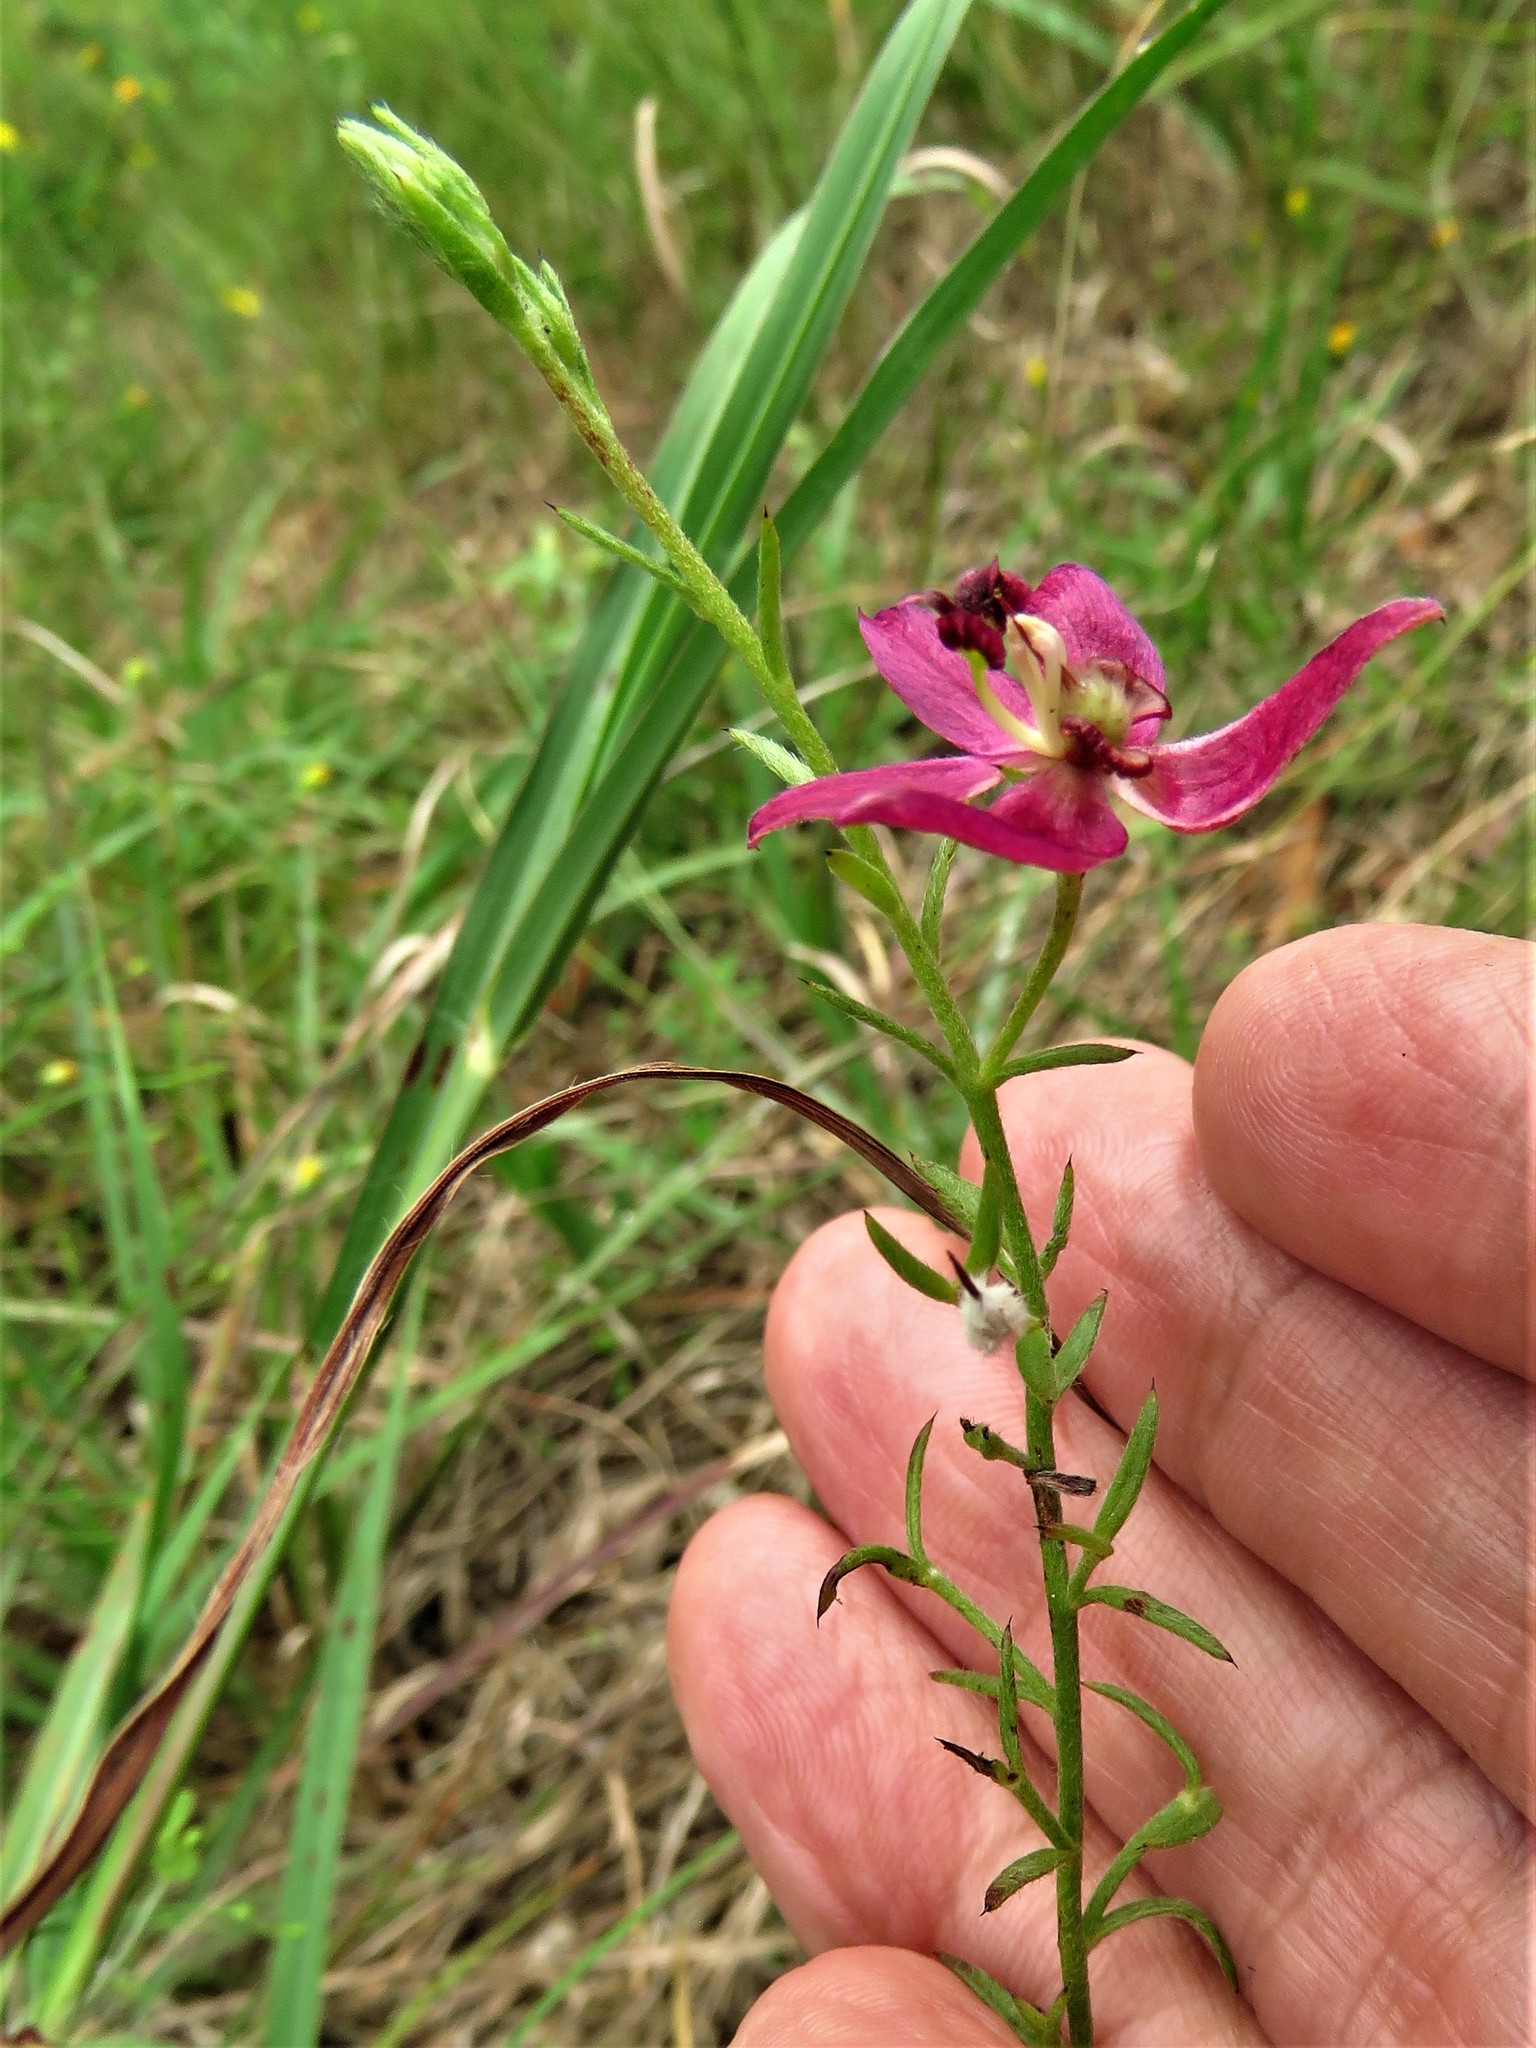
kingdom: Plantae
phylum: Tracheophyta
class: Magnoliopsida
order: Zygophyllales
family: Krameriaceae
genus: Krameria
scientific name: Krameria lanceolata
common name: Ratany
